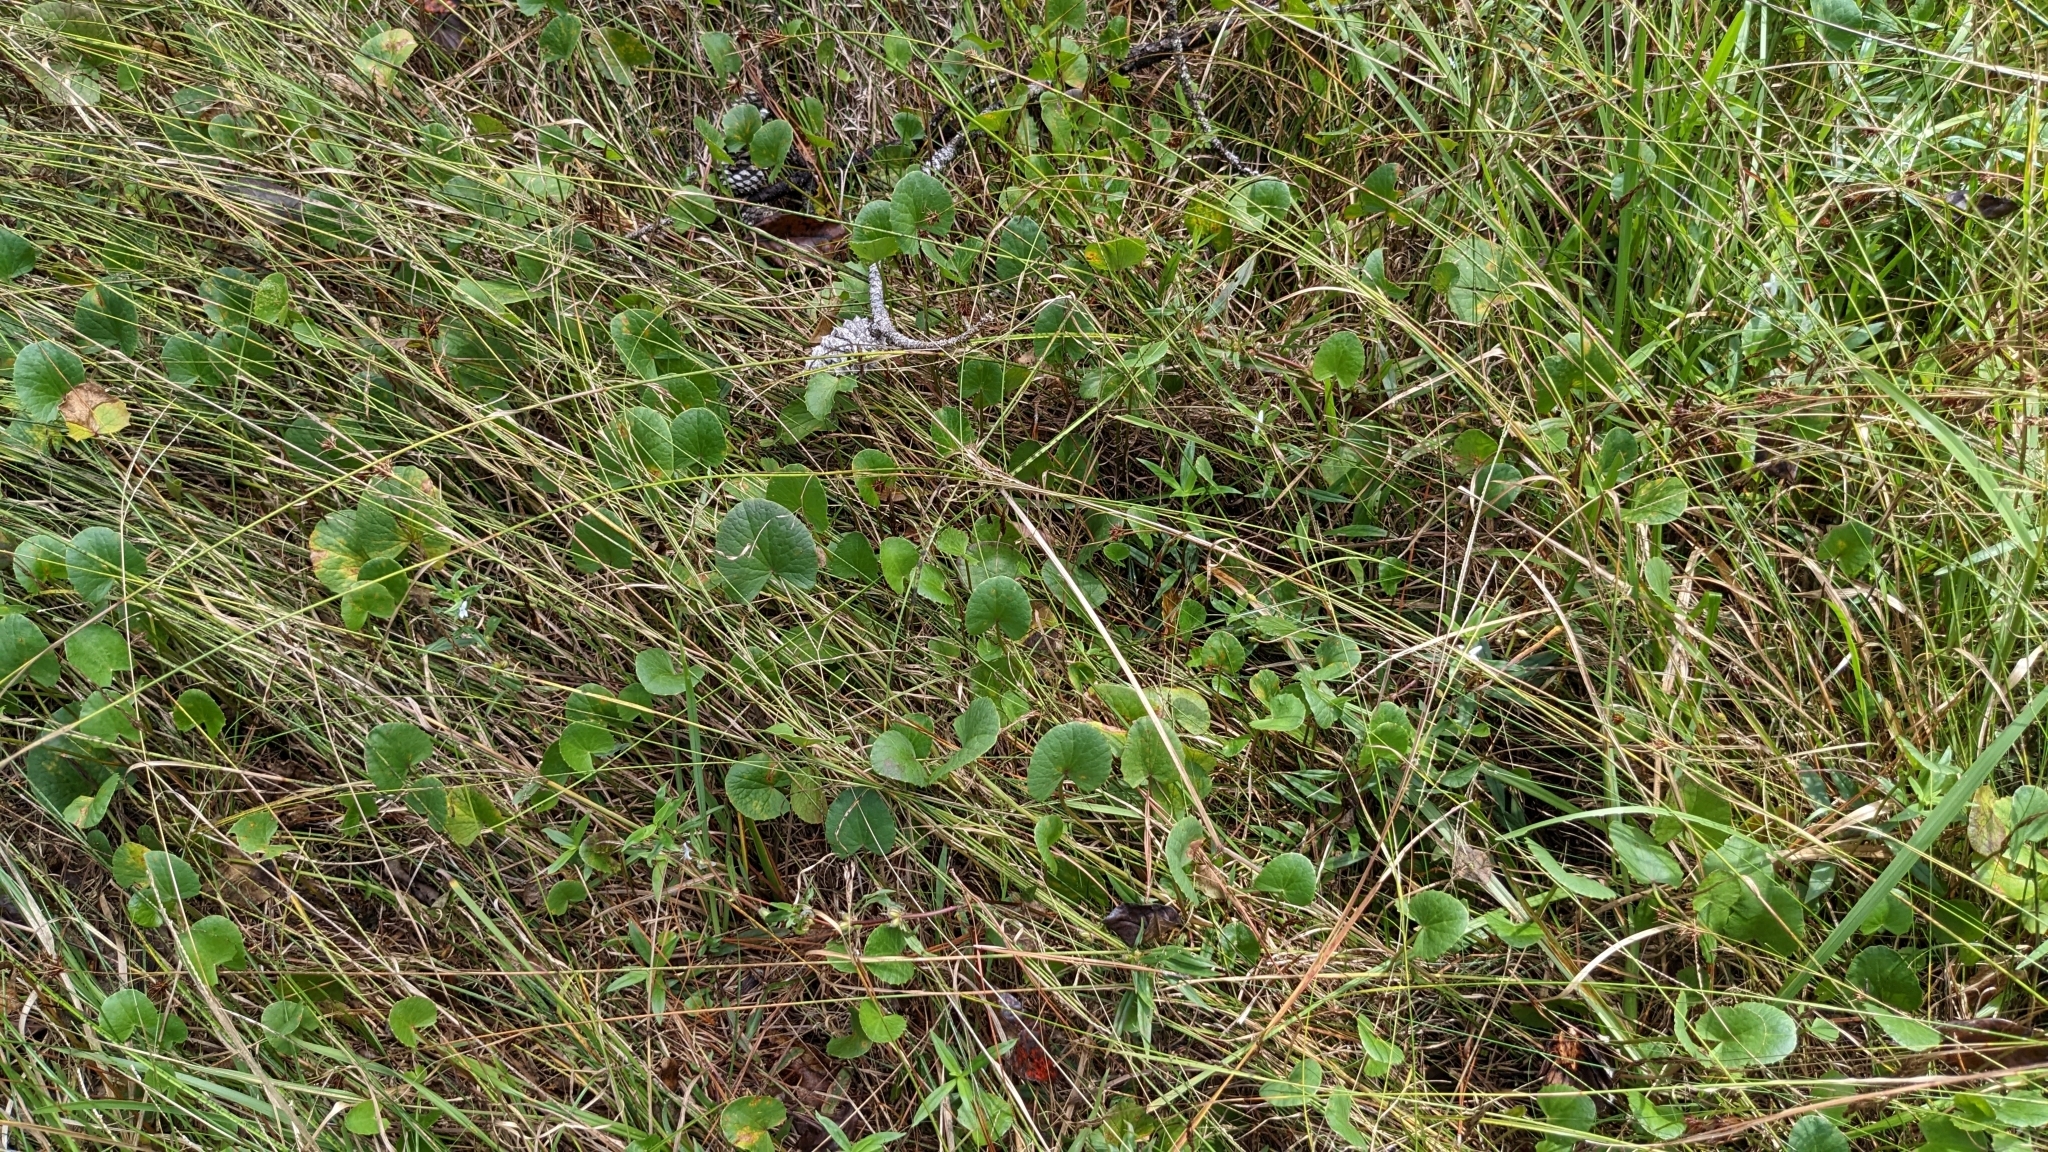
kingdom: Plantae
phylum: Tracheophyta
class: Magnoliopsida
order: Apiales
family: Apiaceae
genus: Centella
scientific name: Centella erecta
